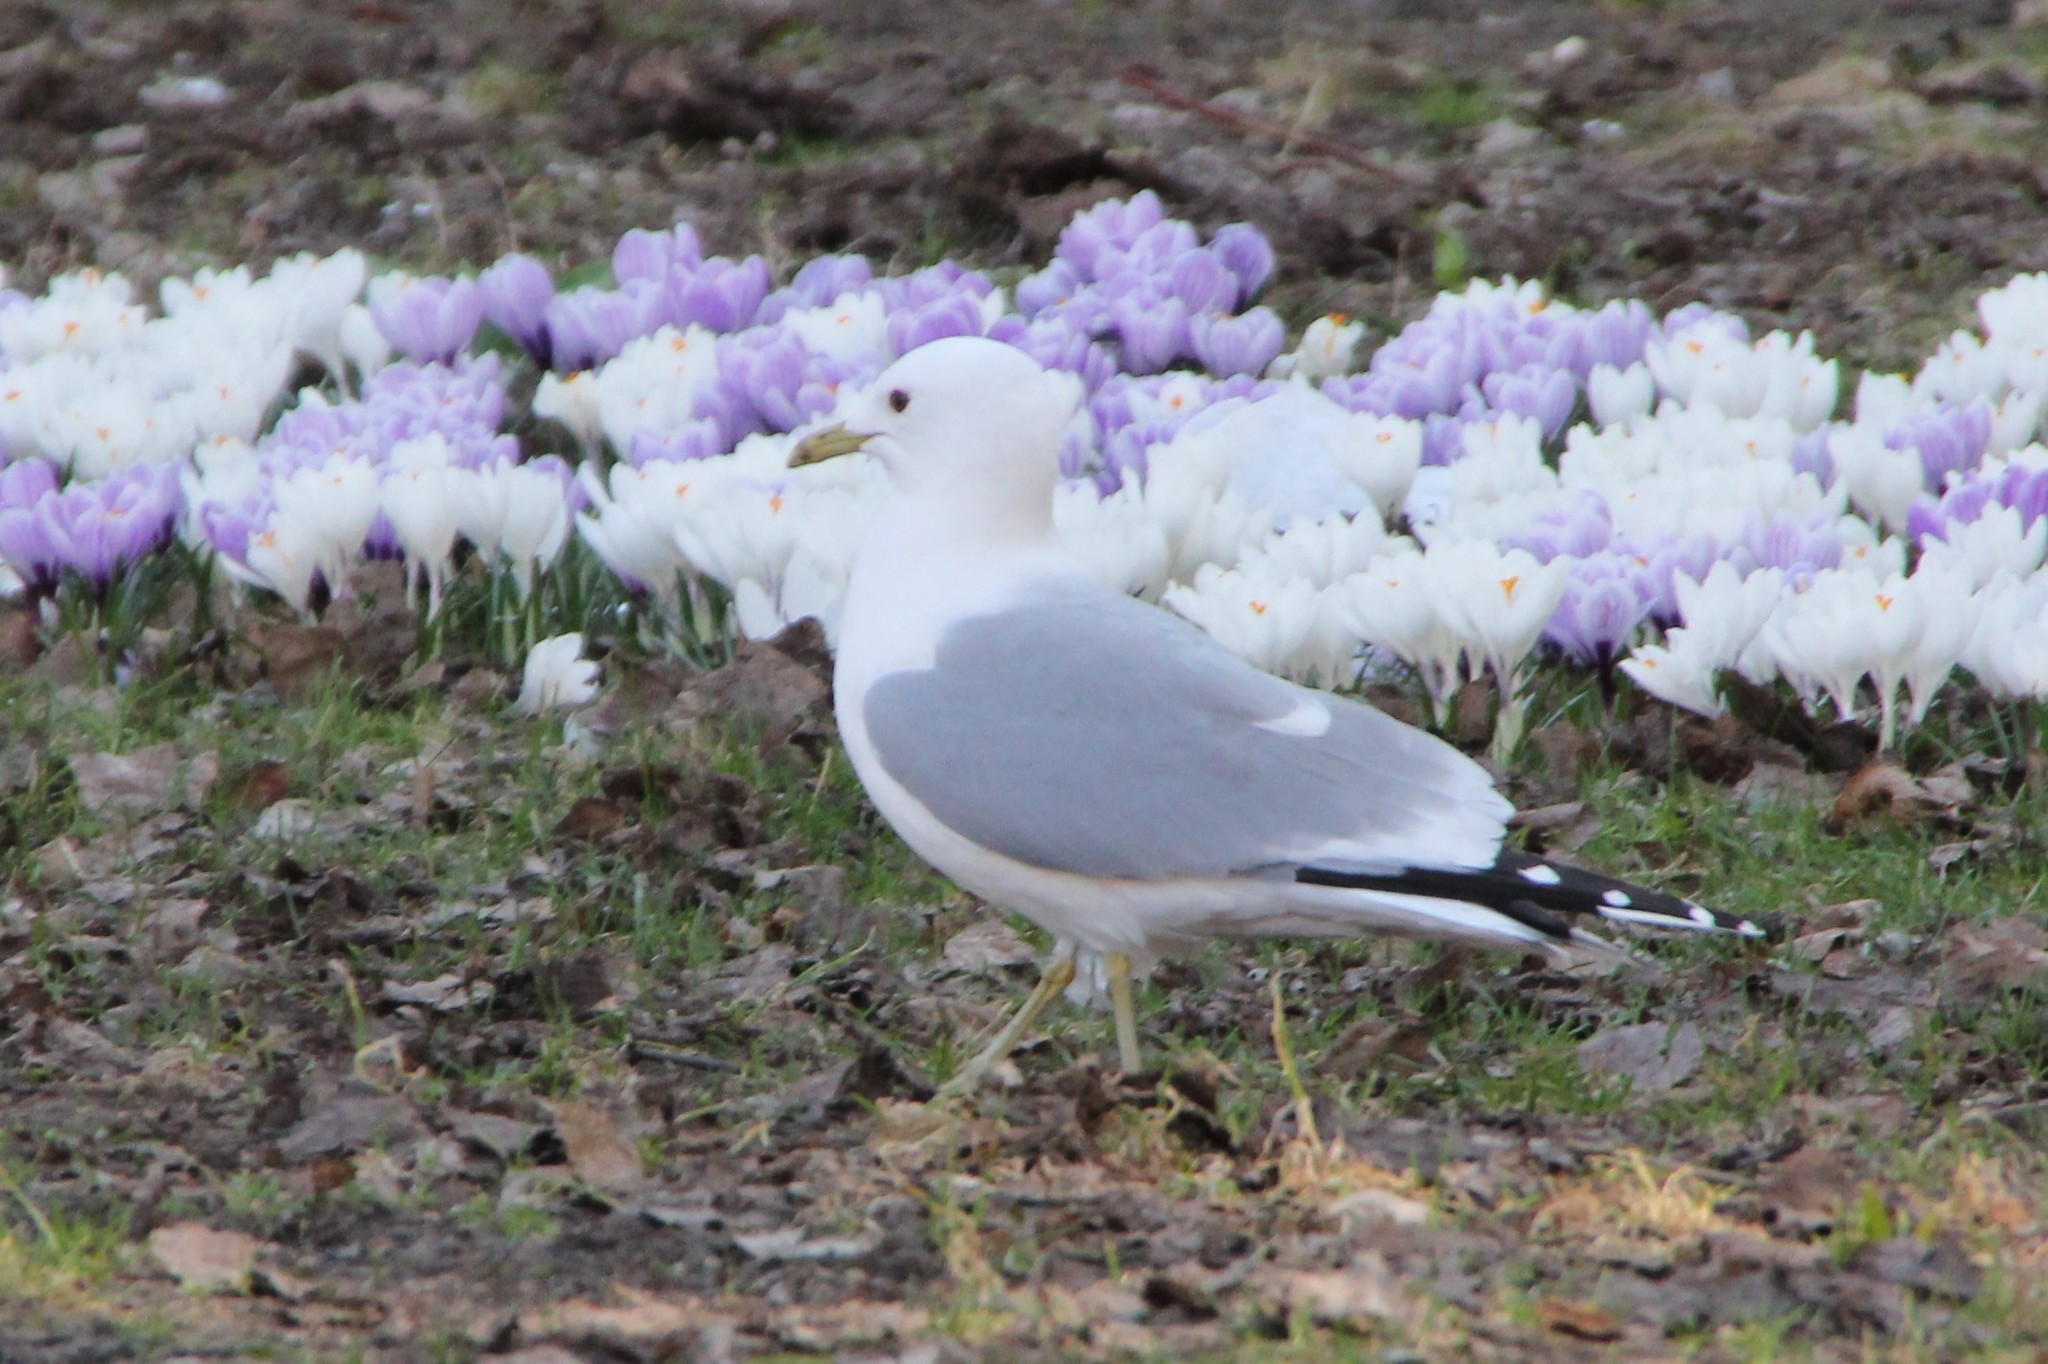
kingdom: Animalia
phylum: Chordata
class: Aves
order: Charadriiformes
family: Laridae
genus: Larus
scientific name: Larus canus
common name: Mew gull
